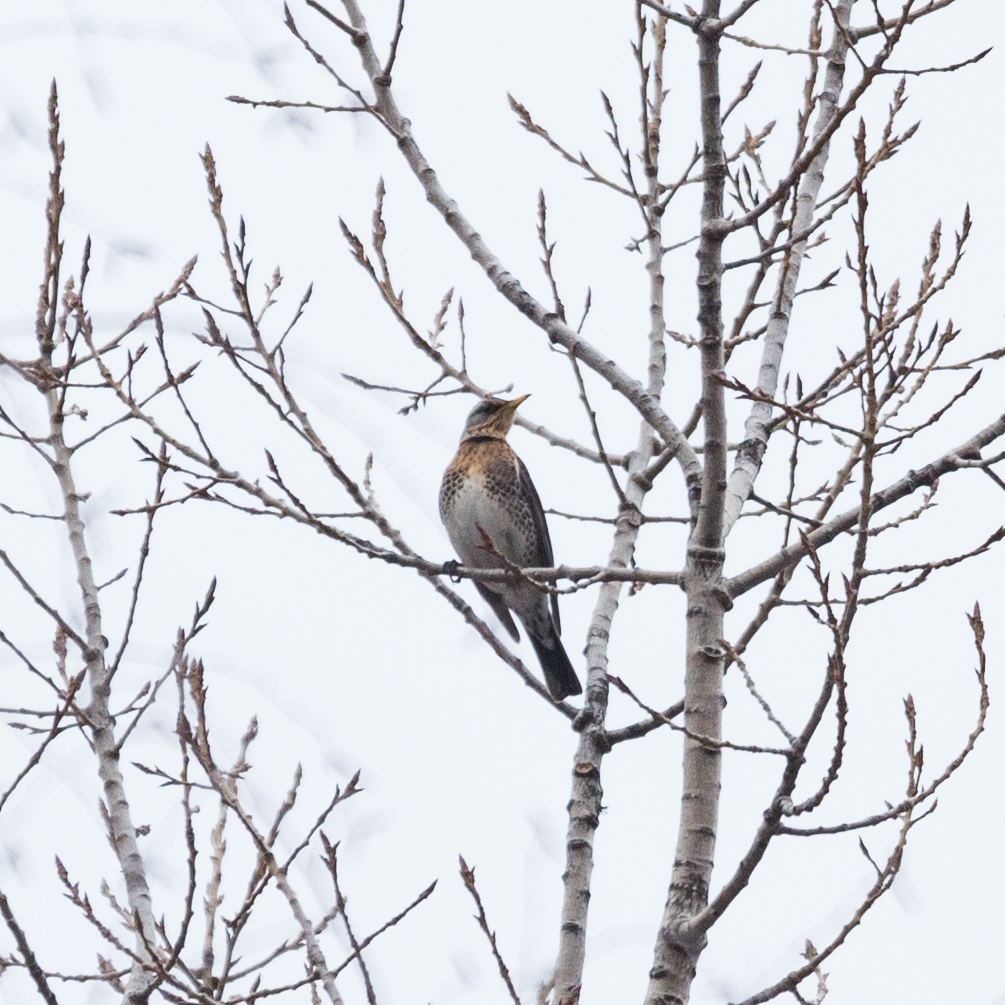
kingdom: Animalia
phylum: Chordata
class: Aves
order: Passeriformes
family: Turdidae
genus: Turdus
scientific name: Turdus pilaris
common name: Fieldfare
